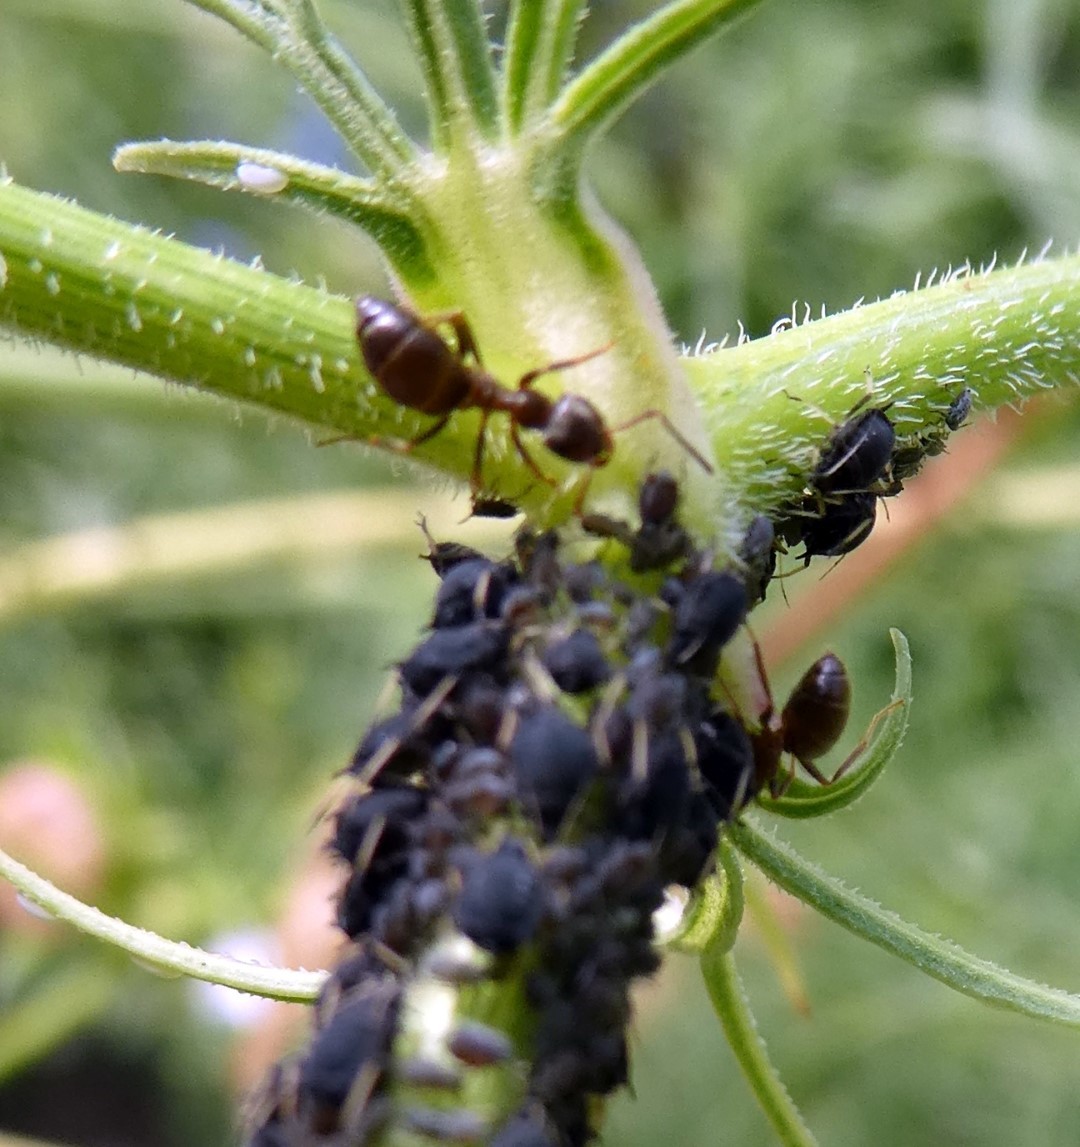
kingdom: Animalia
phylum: Arthropoda
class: Insecta
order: Hymenoptera
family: Formicidae
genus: Lasius
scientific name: Lasius niger
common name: Small black ant
